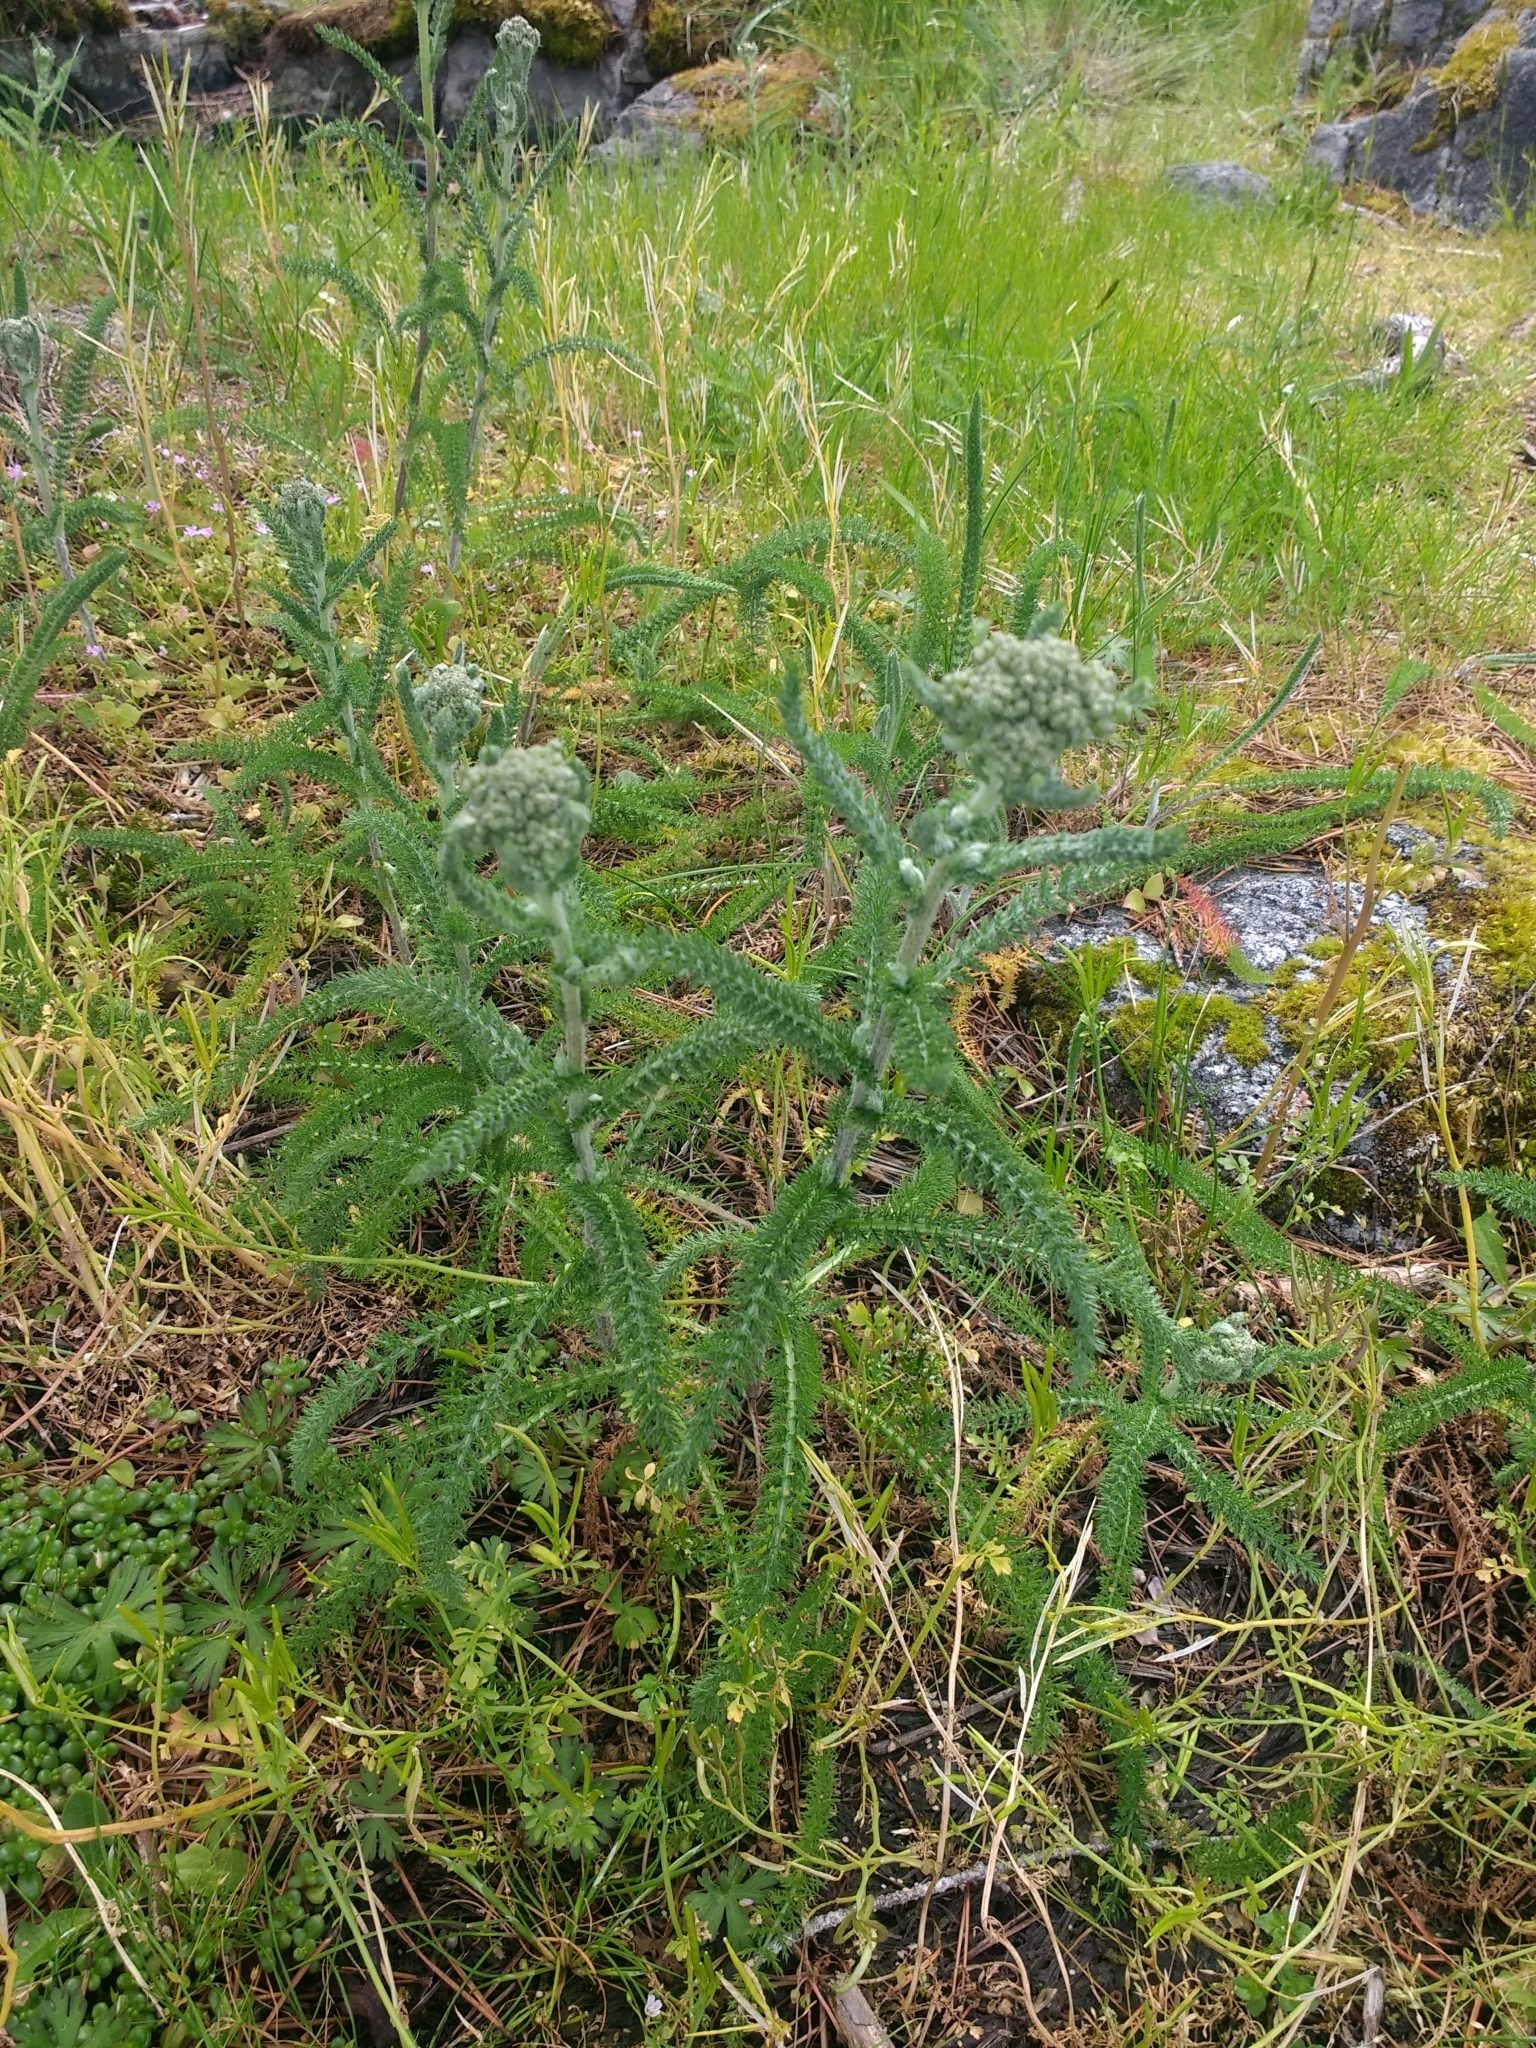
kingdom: Plantae
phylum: Tracheophyta
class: Magnoliopsida
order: Asterales
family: Asteraceae
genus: Achillea
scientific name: Achillea millefolium
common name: Yarrow
